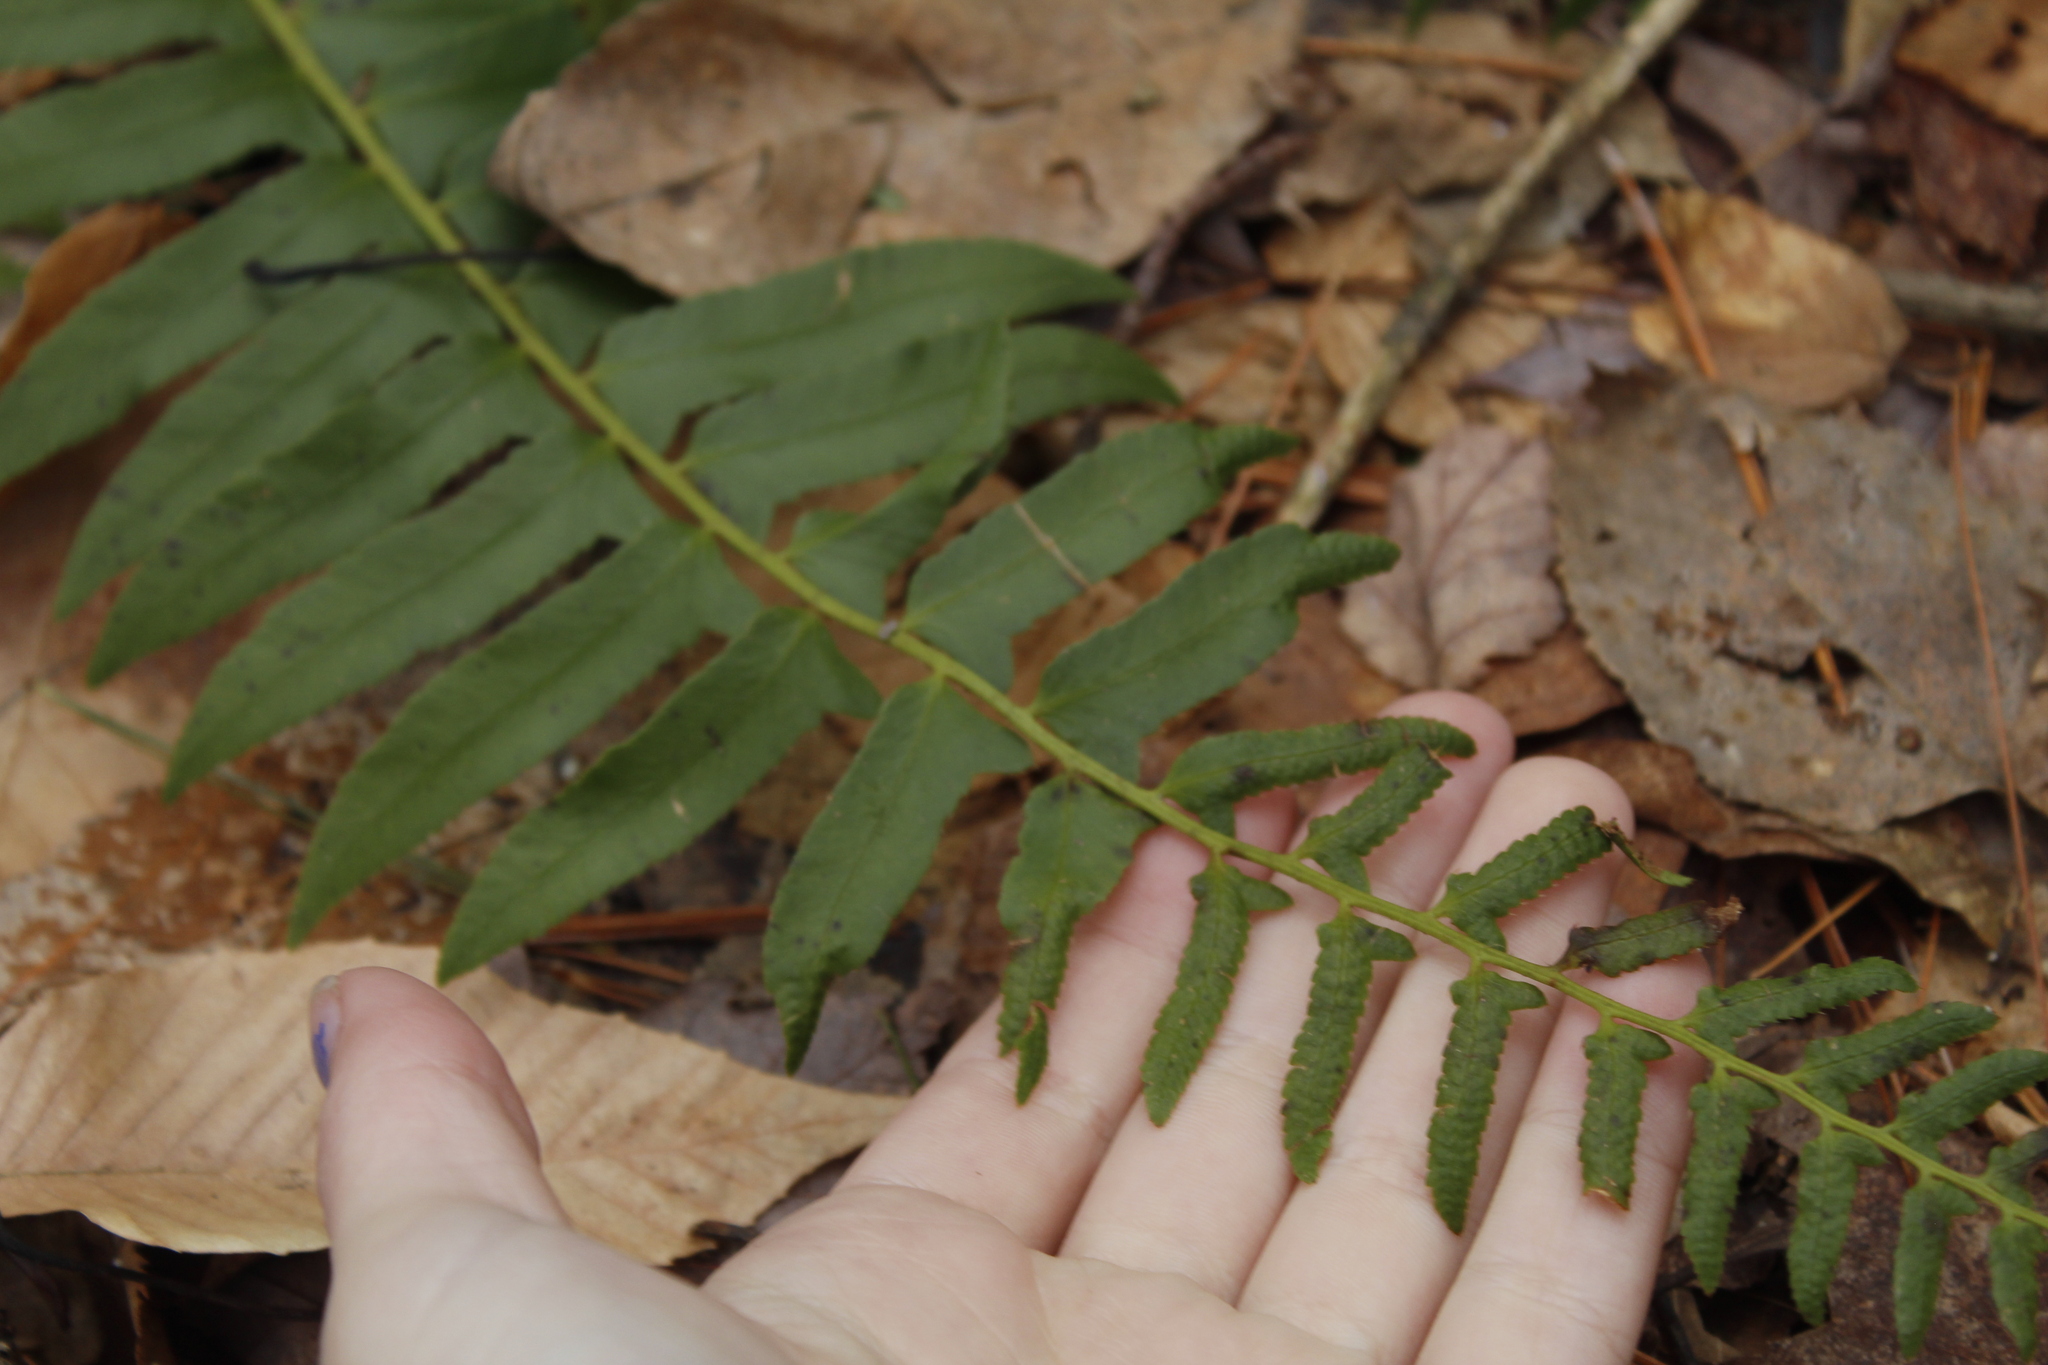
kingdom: Plantae
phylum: Tracheophyta
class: Polypodiopsida
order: Polypodiales
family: Dryopteridaceae
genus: Polystichum
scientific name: Polystichum acrostichoides
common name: Christmas fern
